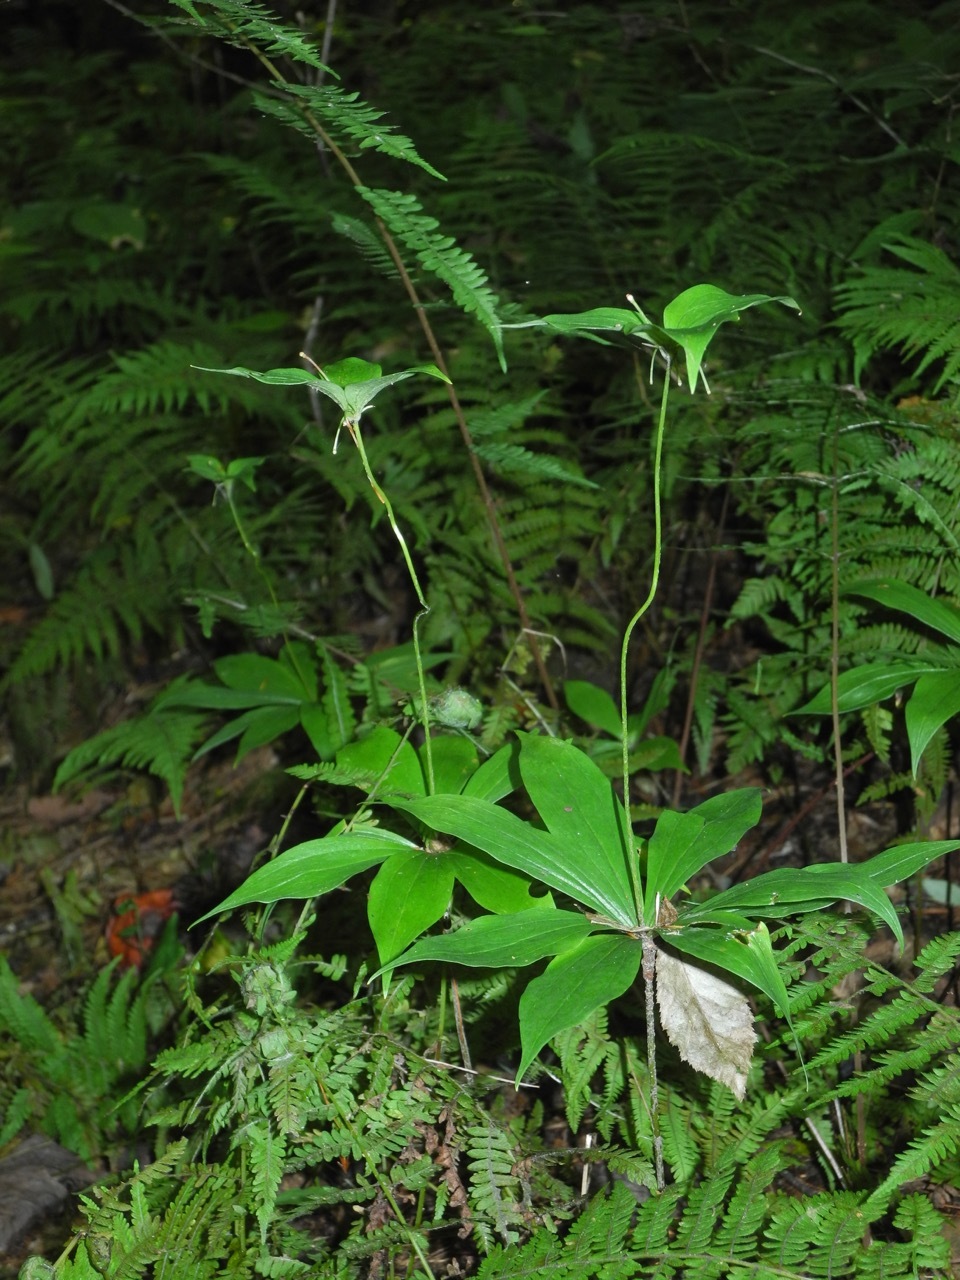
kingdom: Plantae
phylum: Tracheophyta
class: Liliopsida
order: Liliales
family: Liliaceae
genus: Medeola
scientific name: Medeola virginiana
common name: Indian cucumber-root
